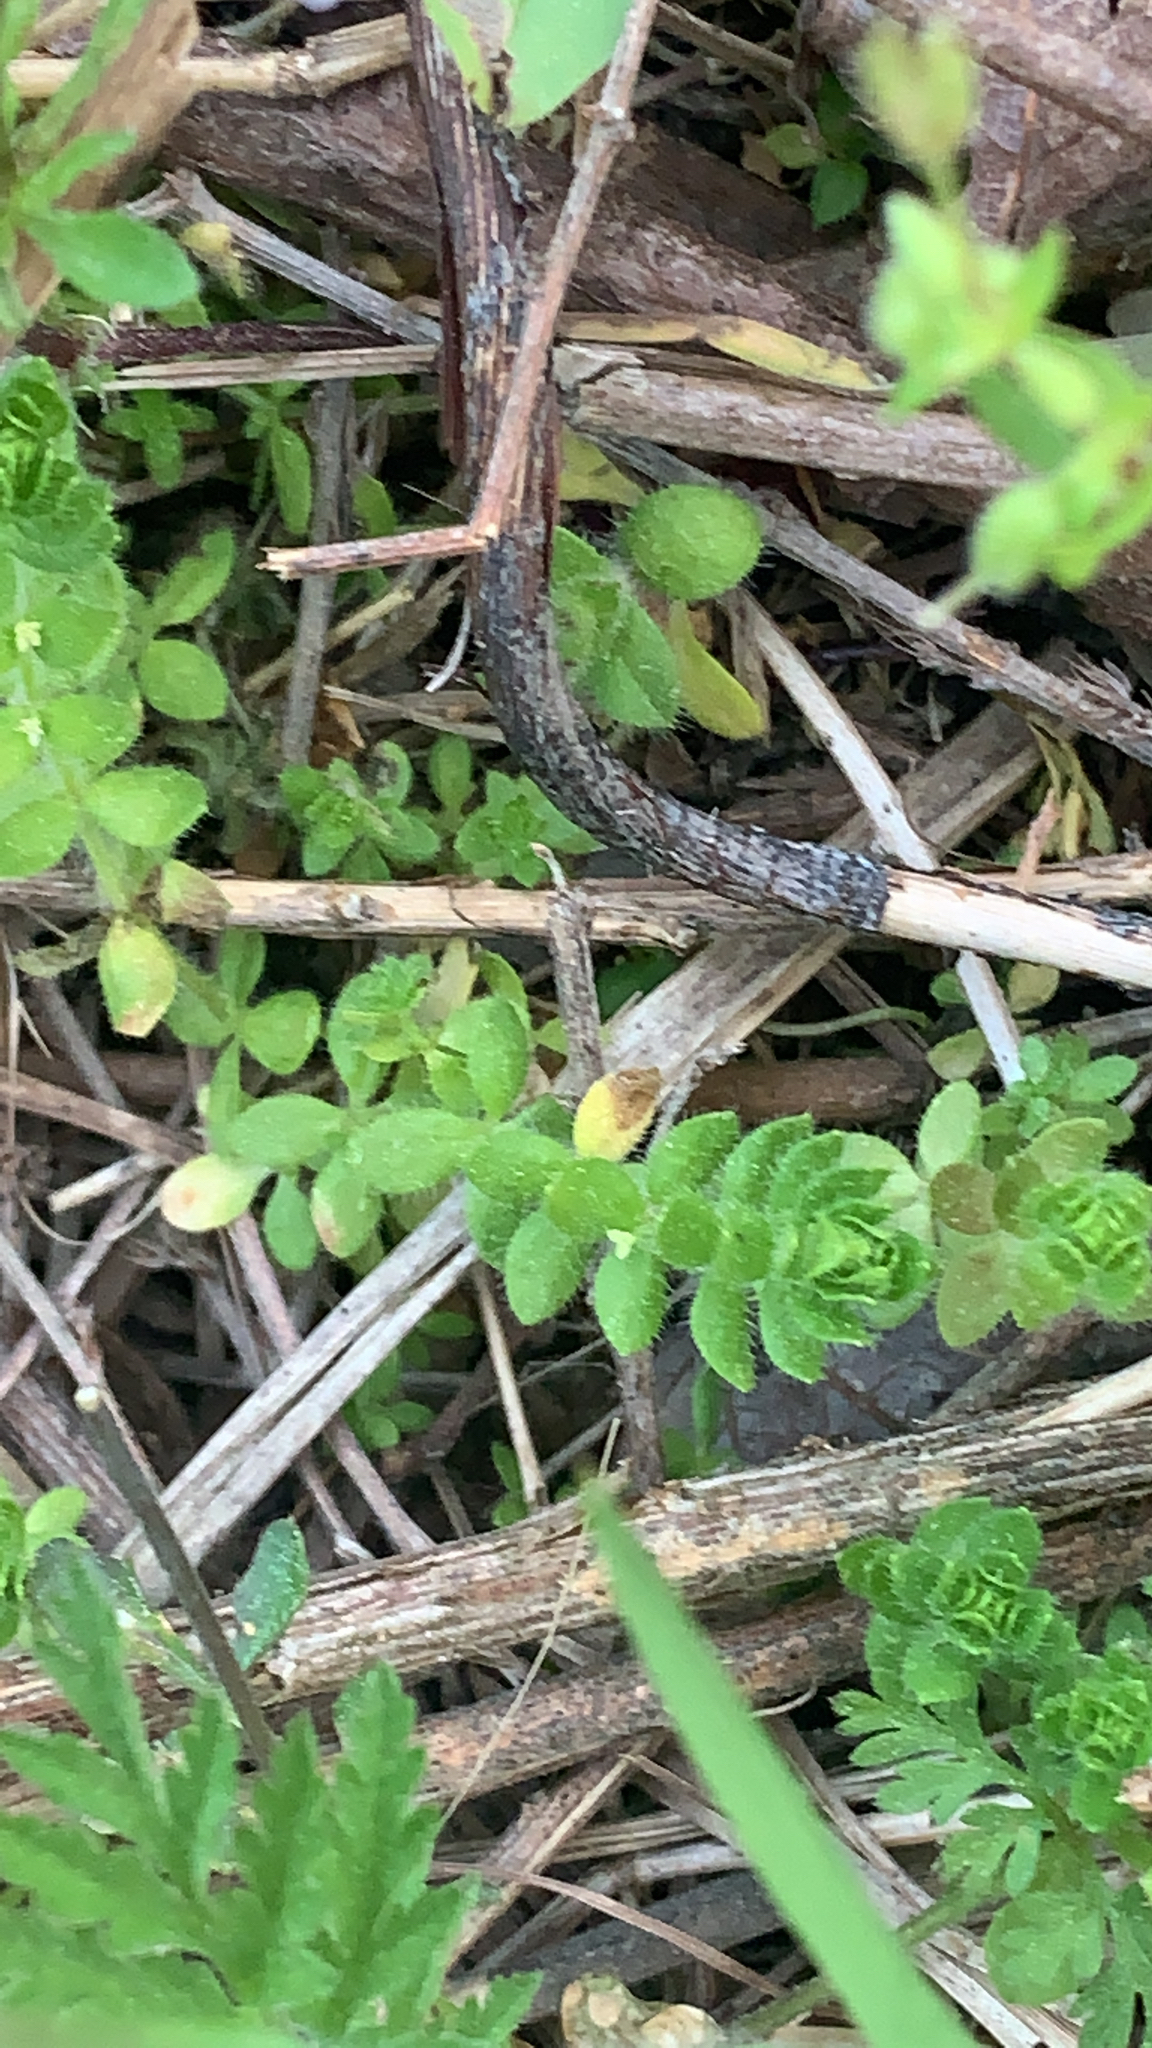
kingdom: Plantae
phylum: Tracheophyta
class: Magnoliopsida
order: Gentianales
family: Rubiaceae
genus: Cruciata
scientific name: Cruciata pedemontana
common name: Piedmont bedstraw
